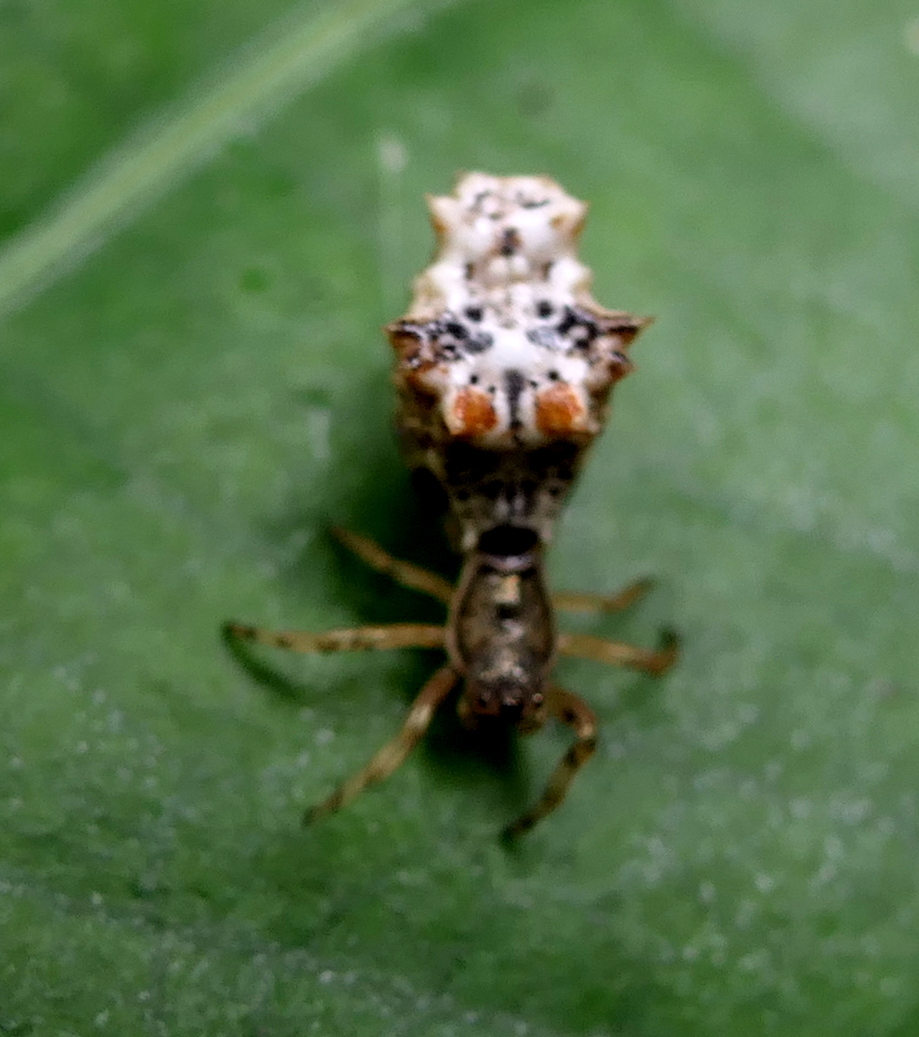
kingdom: Animalia
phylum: Arthropoda
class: Arachnida
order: Araneae
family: Araneidae
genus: Micrathena
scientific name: Micrathena horrida
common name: Orb weavers
